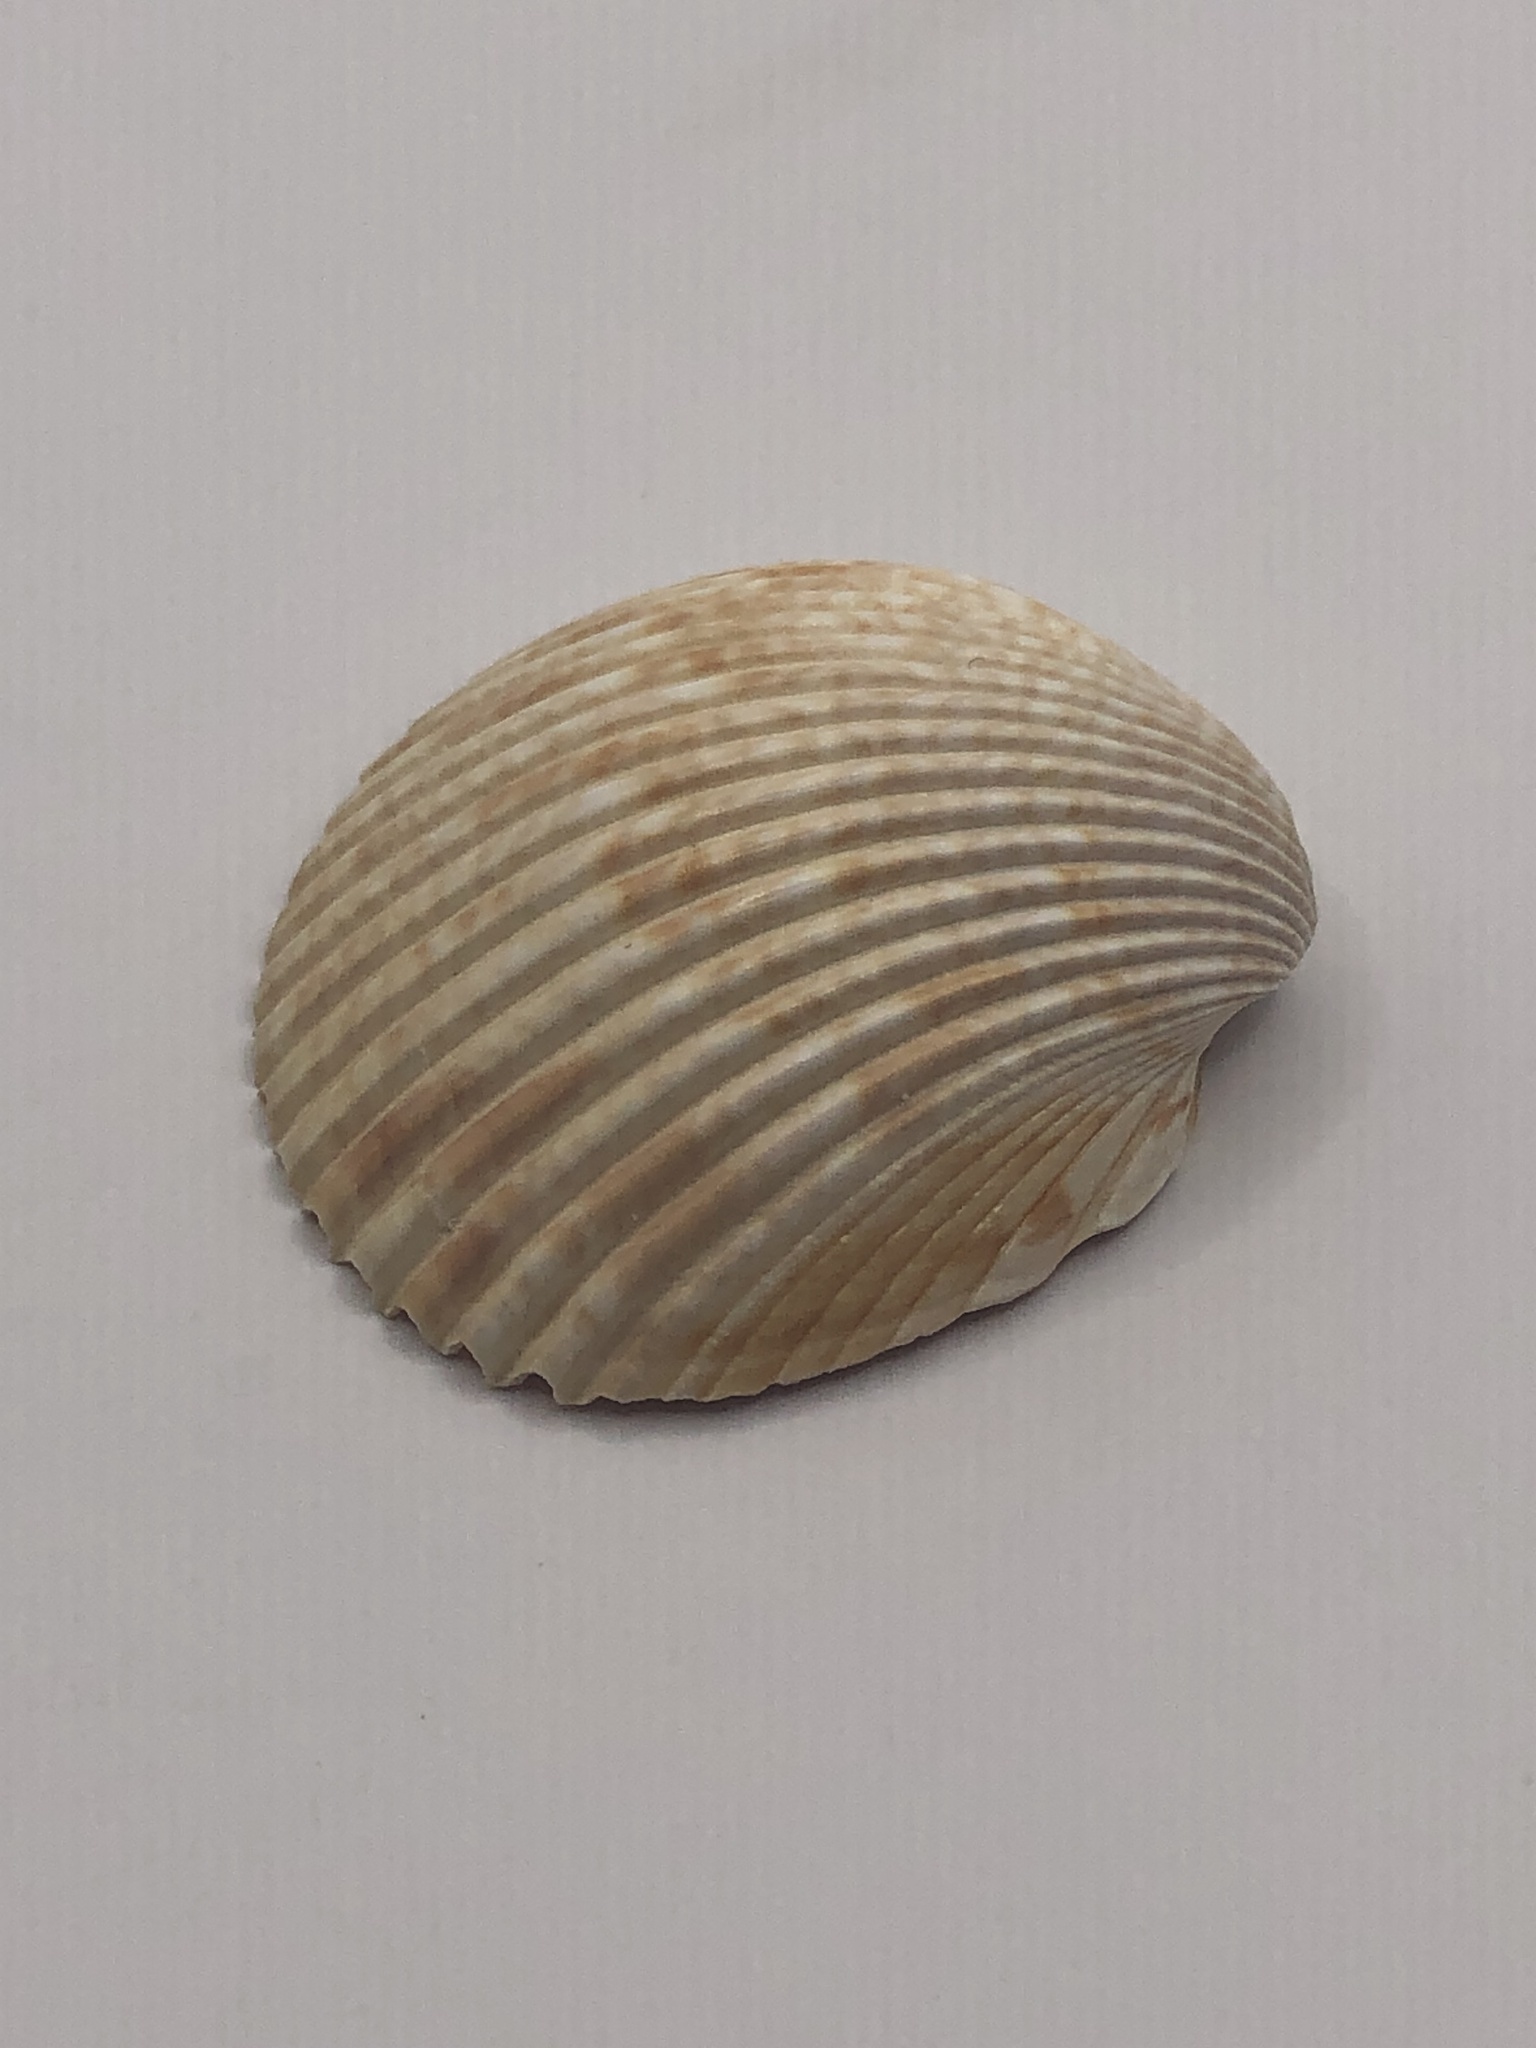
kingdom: Animalia
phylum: Mollusca
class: Bivalvia
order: Cardiida
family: Cardiidae
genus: Dinocardium
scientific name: Dinocardium robustum
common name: Atlantic giant cockle
